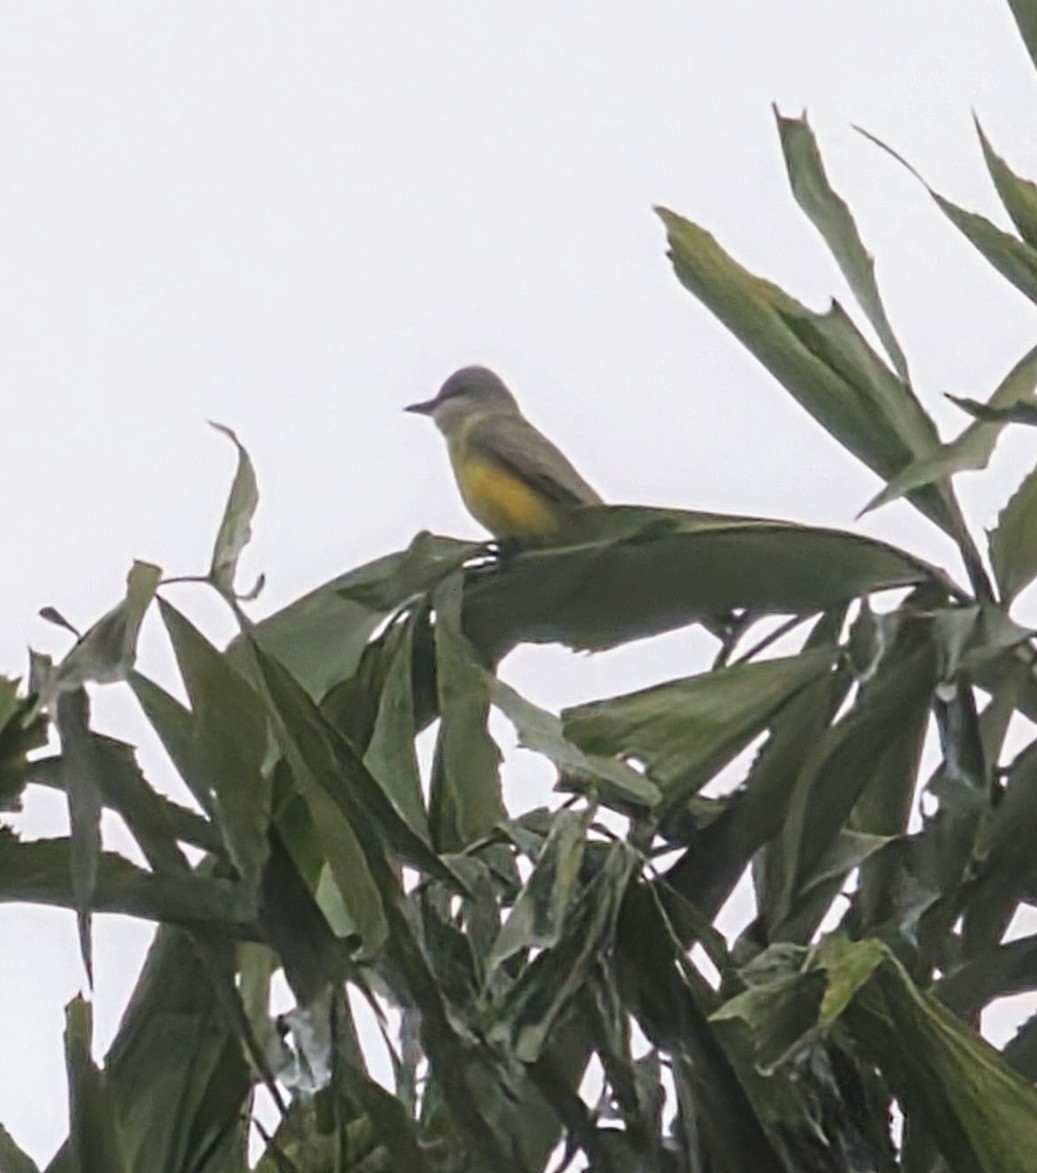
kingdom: Animalia
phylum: Chordata
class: Aves
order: Passeriformes
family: Tyrannidae
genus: Tyrannus
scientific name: Tyrannus melancholicus
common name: Tropical kingbird
